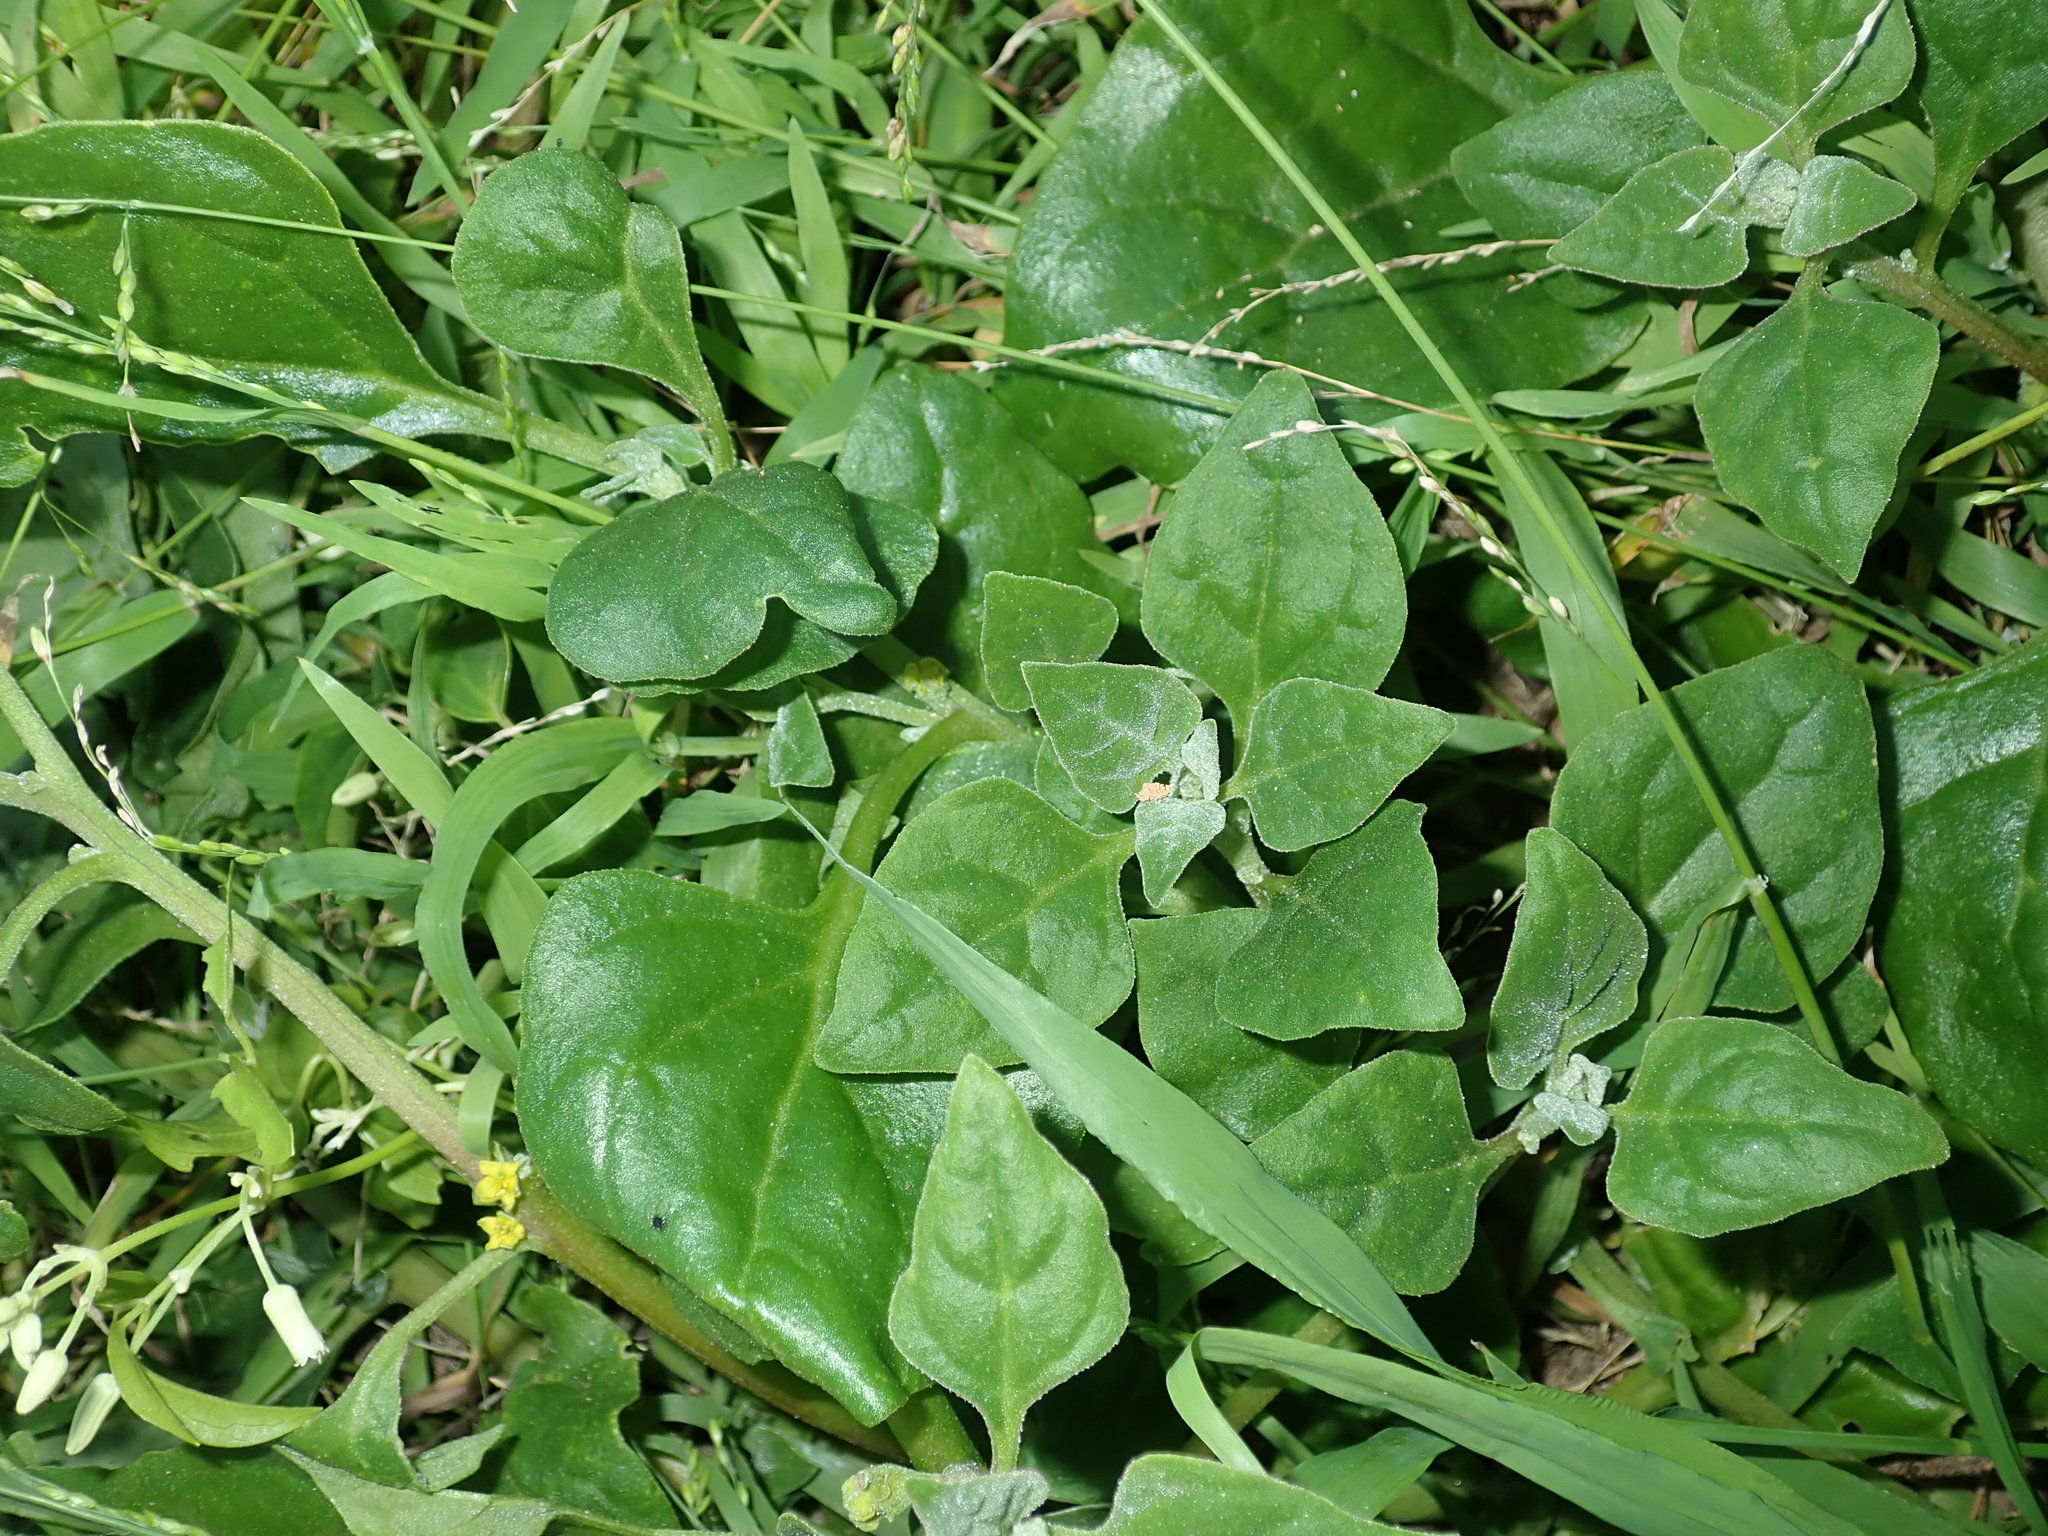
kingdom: Plantae
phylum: Tracheophyta
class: Magnoliopsida
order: Caryophyllales
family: Aizoaceae
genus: Tetragonia
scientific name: Tetragonia tetragonoides
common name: New zealand-spinach
